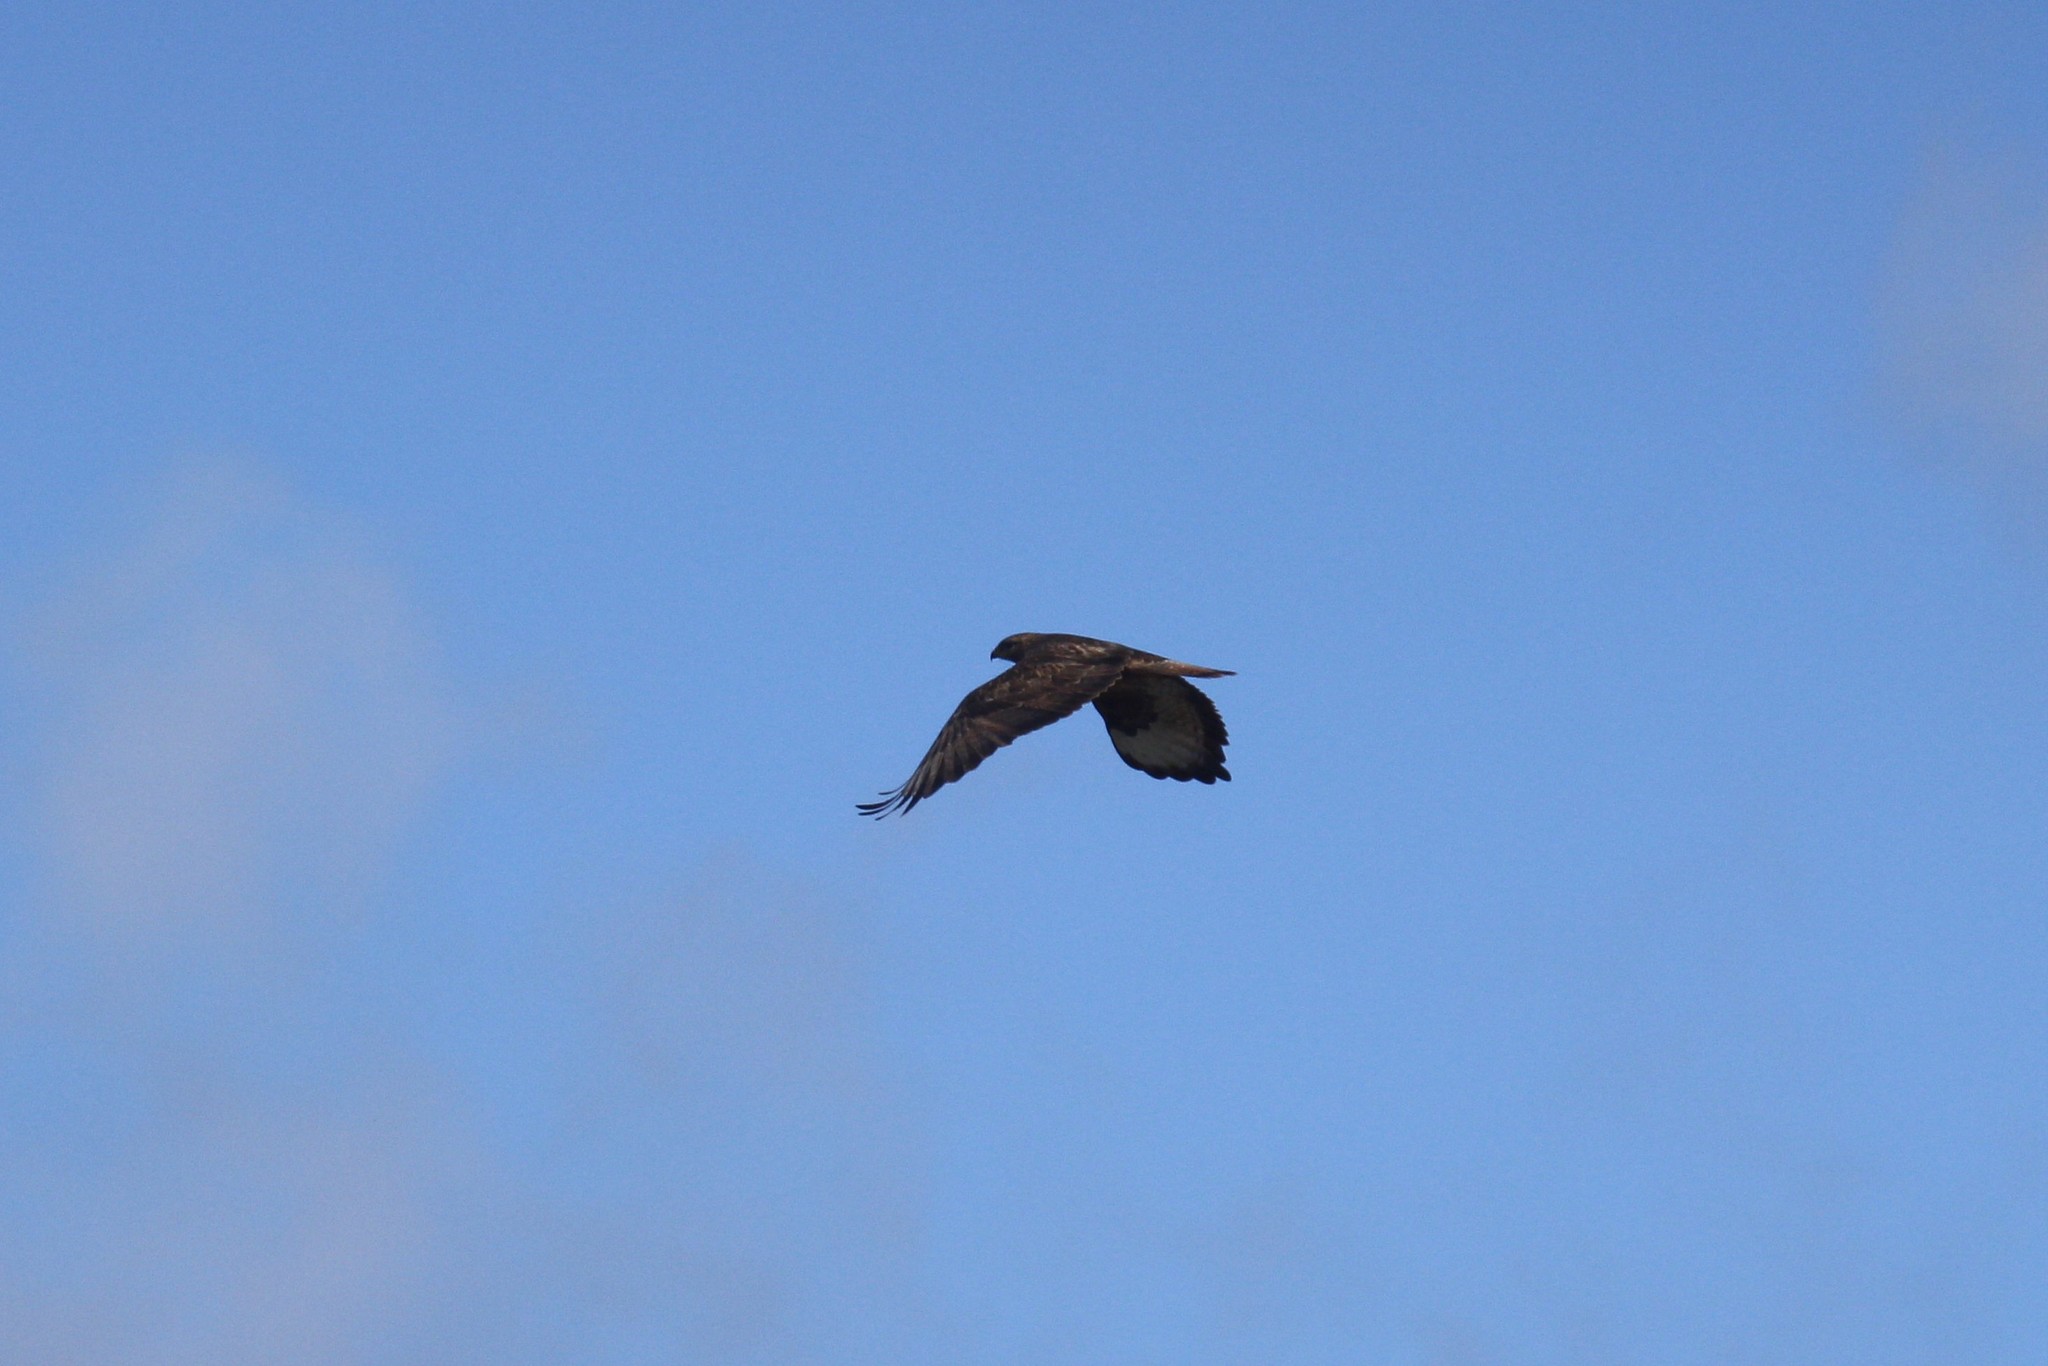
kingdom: Animalia
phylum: Chordata
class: Aves
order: Accipitriformes
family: Accipitridae
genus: Buteo
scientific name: Buteo buteo
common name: Common buzzard
